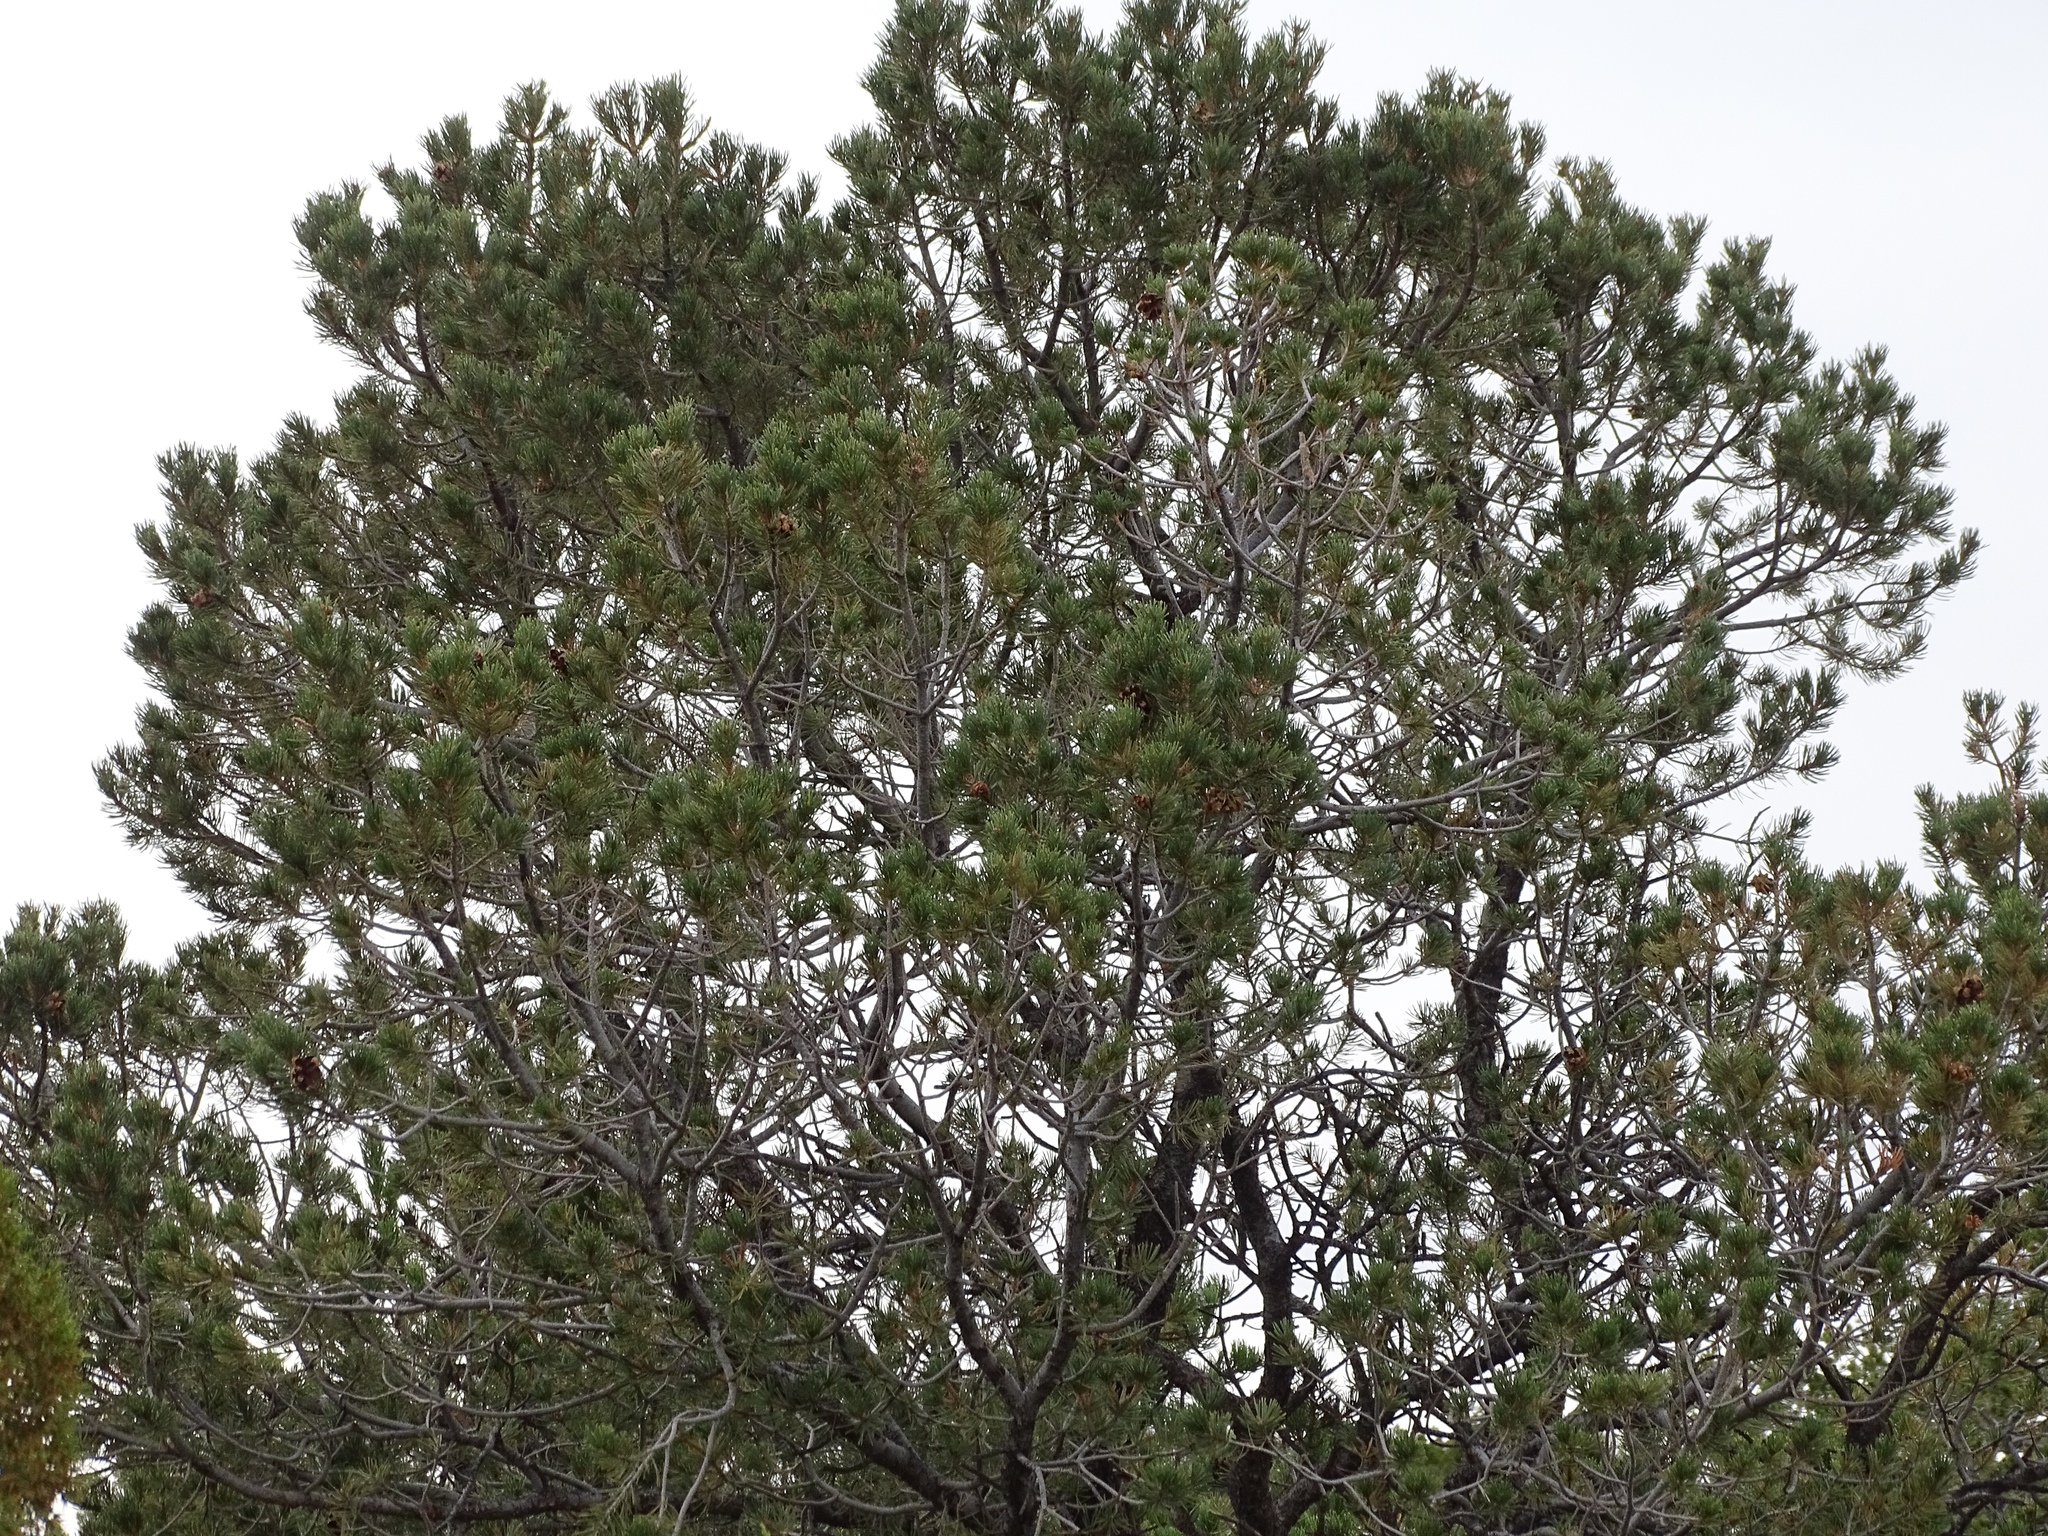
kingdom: Plantae
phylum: Tracheophyta
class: Pinopsida
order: Pinales
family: Pinaceae
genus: Pinus
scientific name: Pinus edulis
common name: Colorado pinyon
